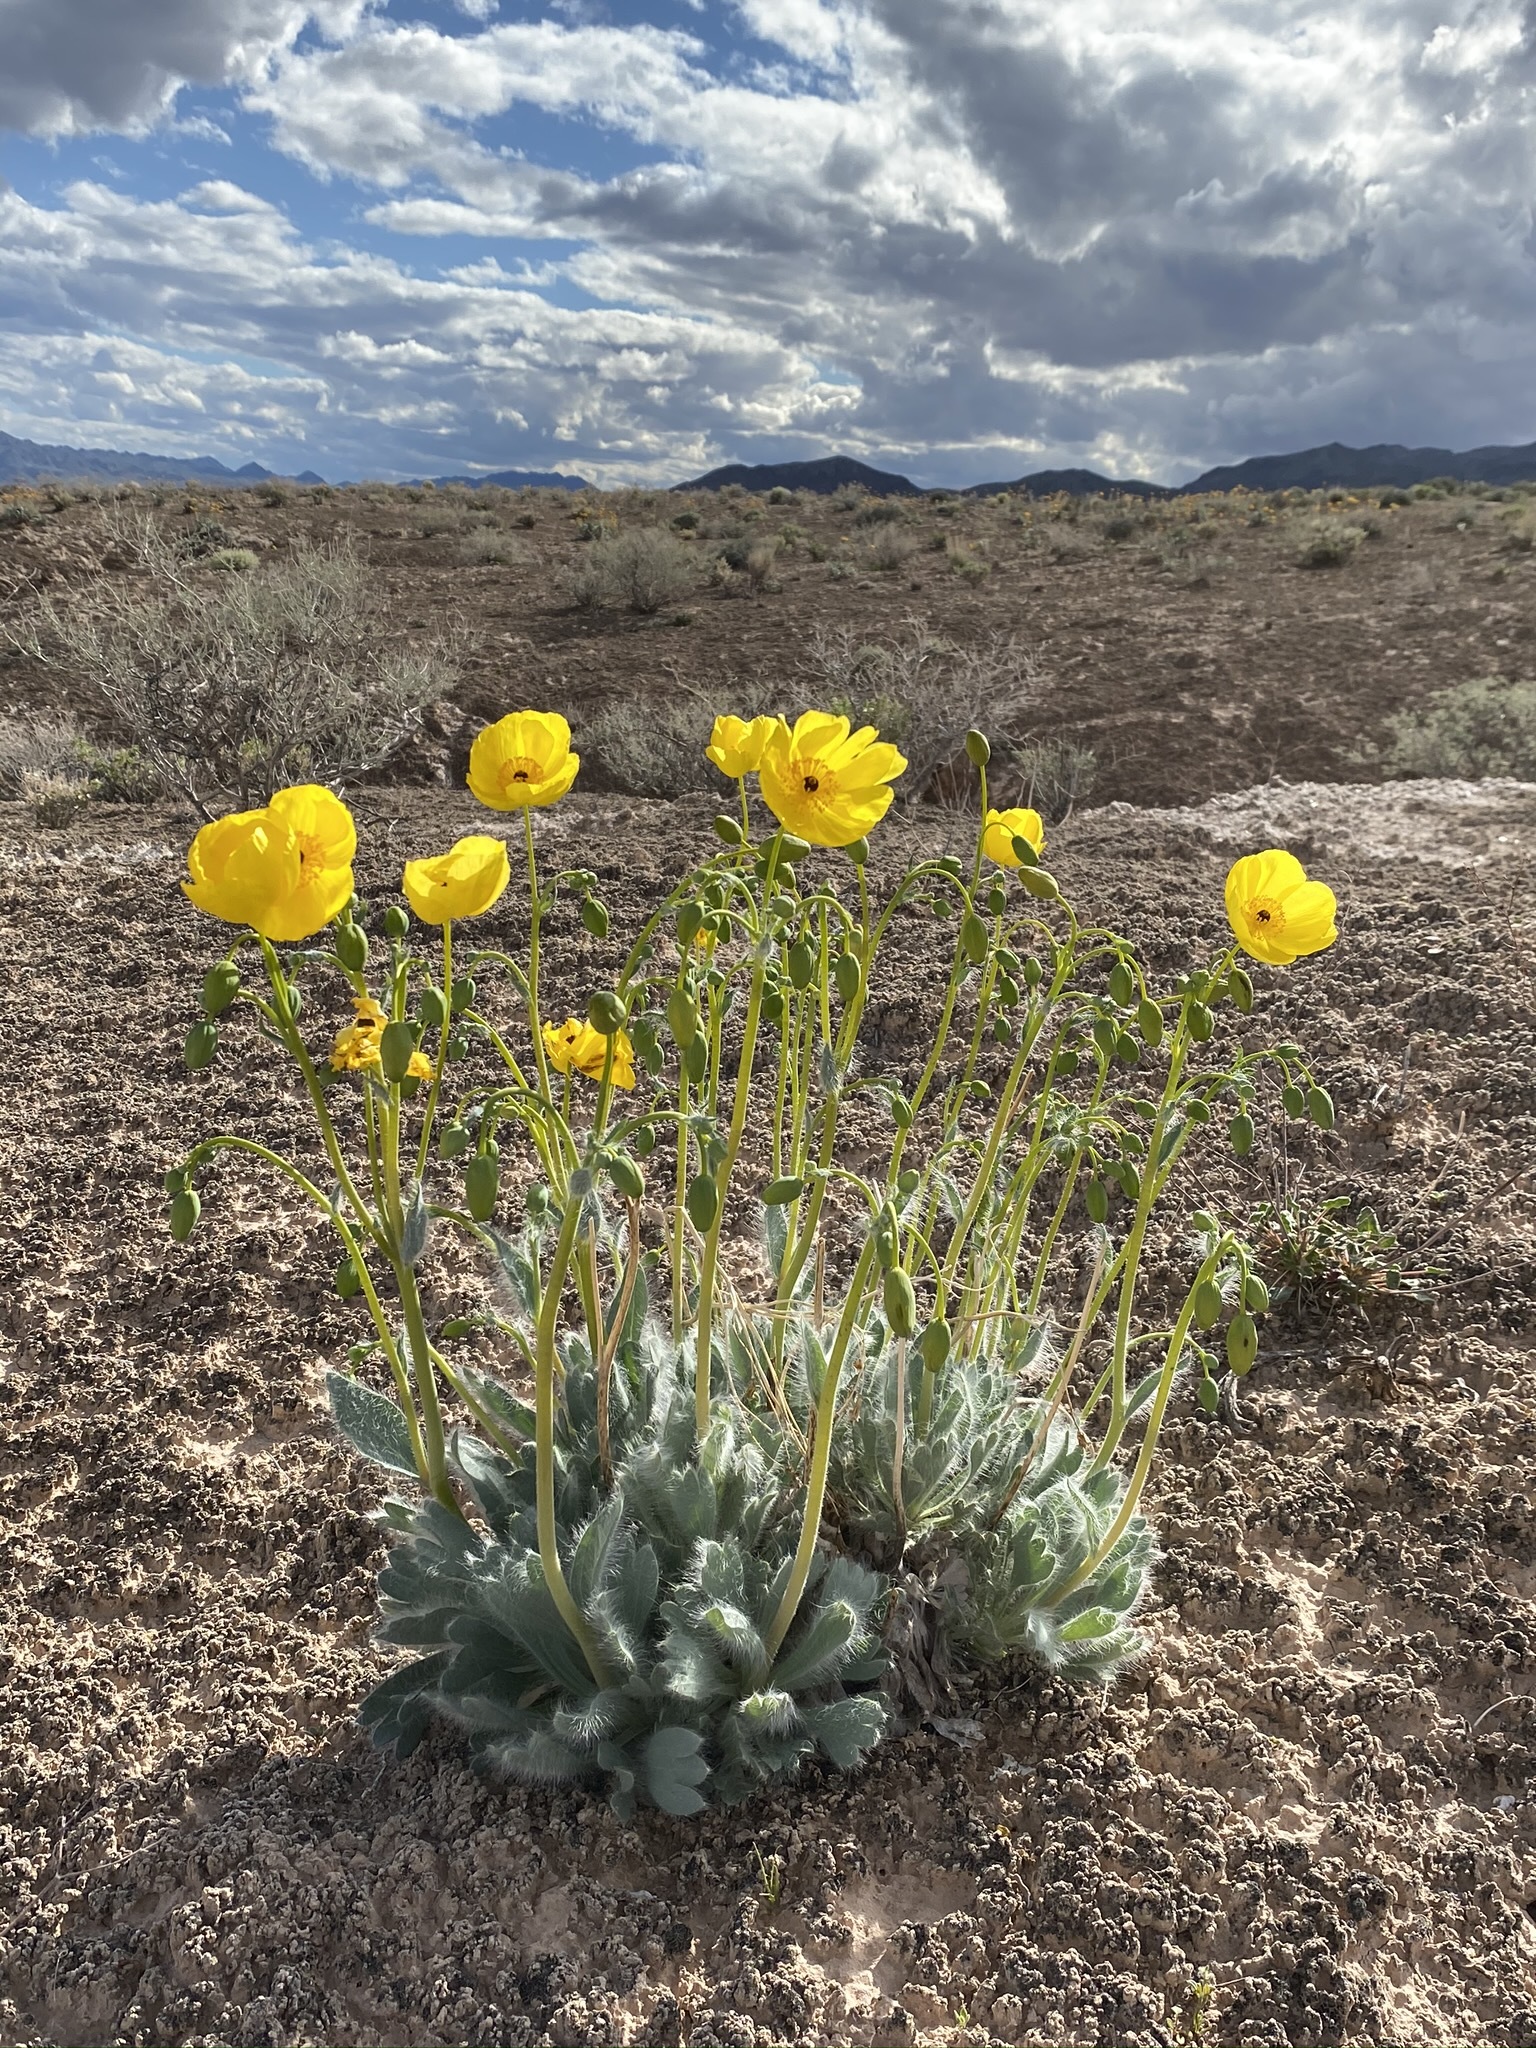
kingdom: Plantae
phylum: Tracheophyta
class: Magnoliopsida
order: Ranunculales
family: Papaveraceae
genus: Arctomecon
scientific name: Arctomecon californicum
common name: Golden bearclaw-poppy
